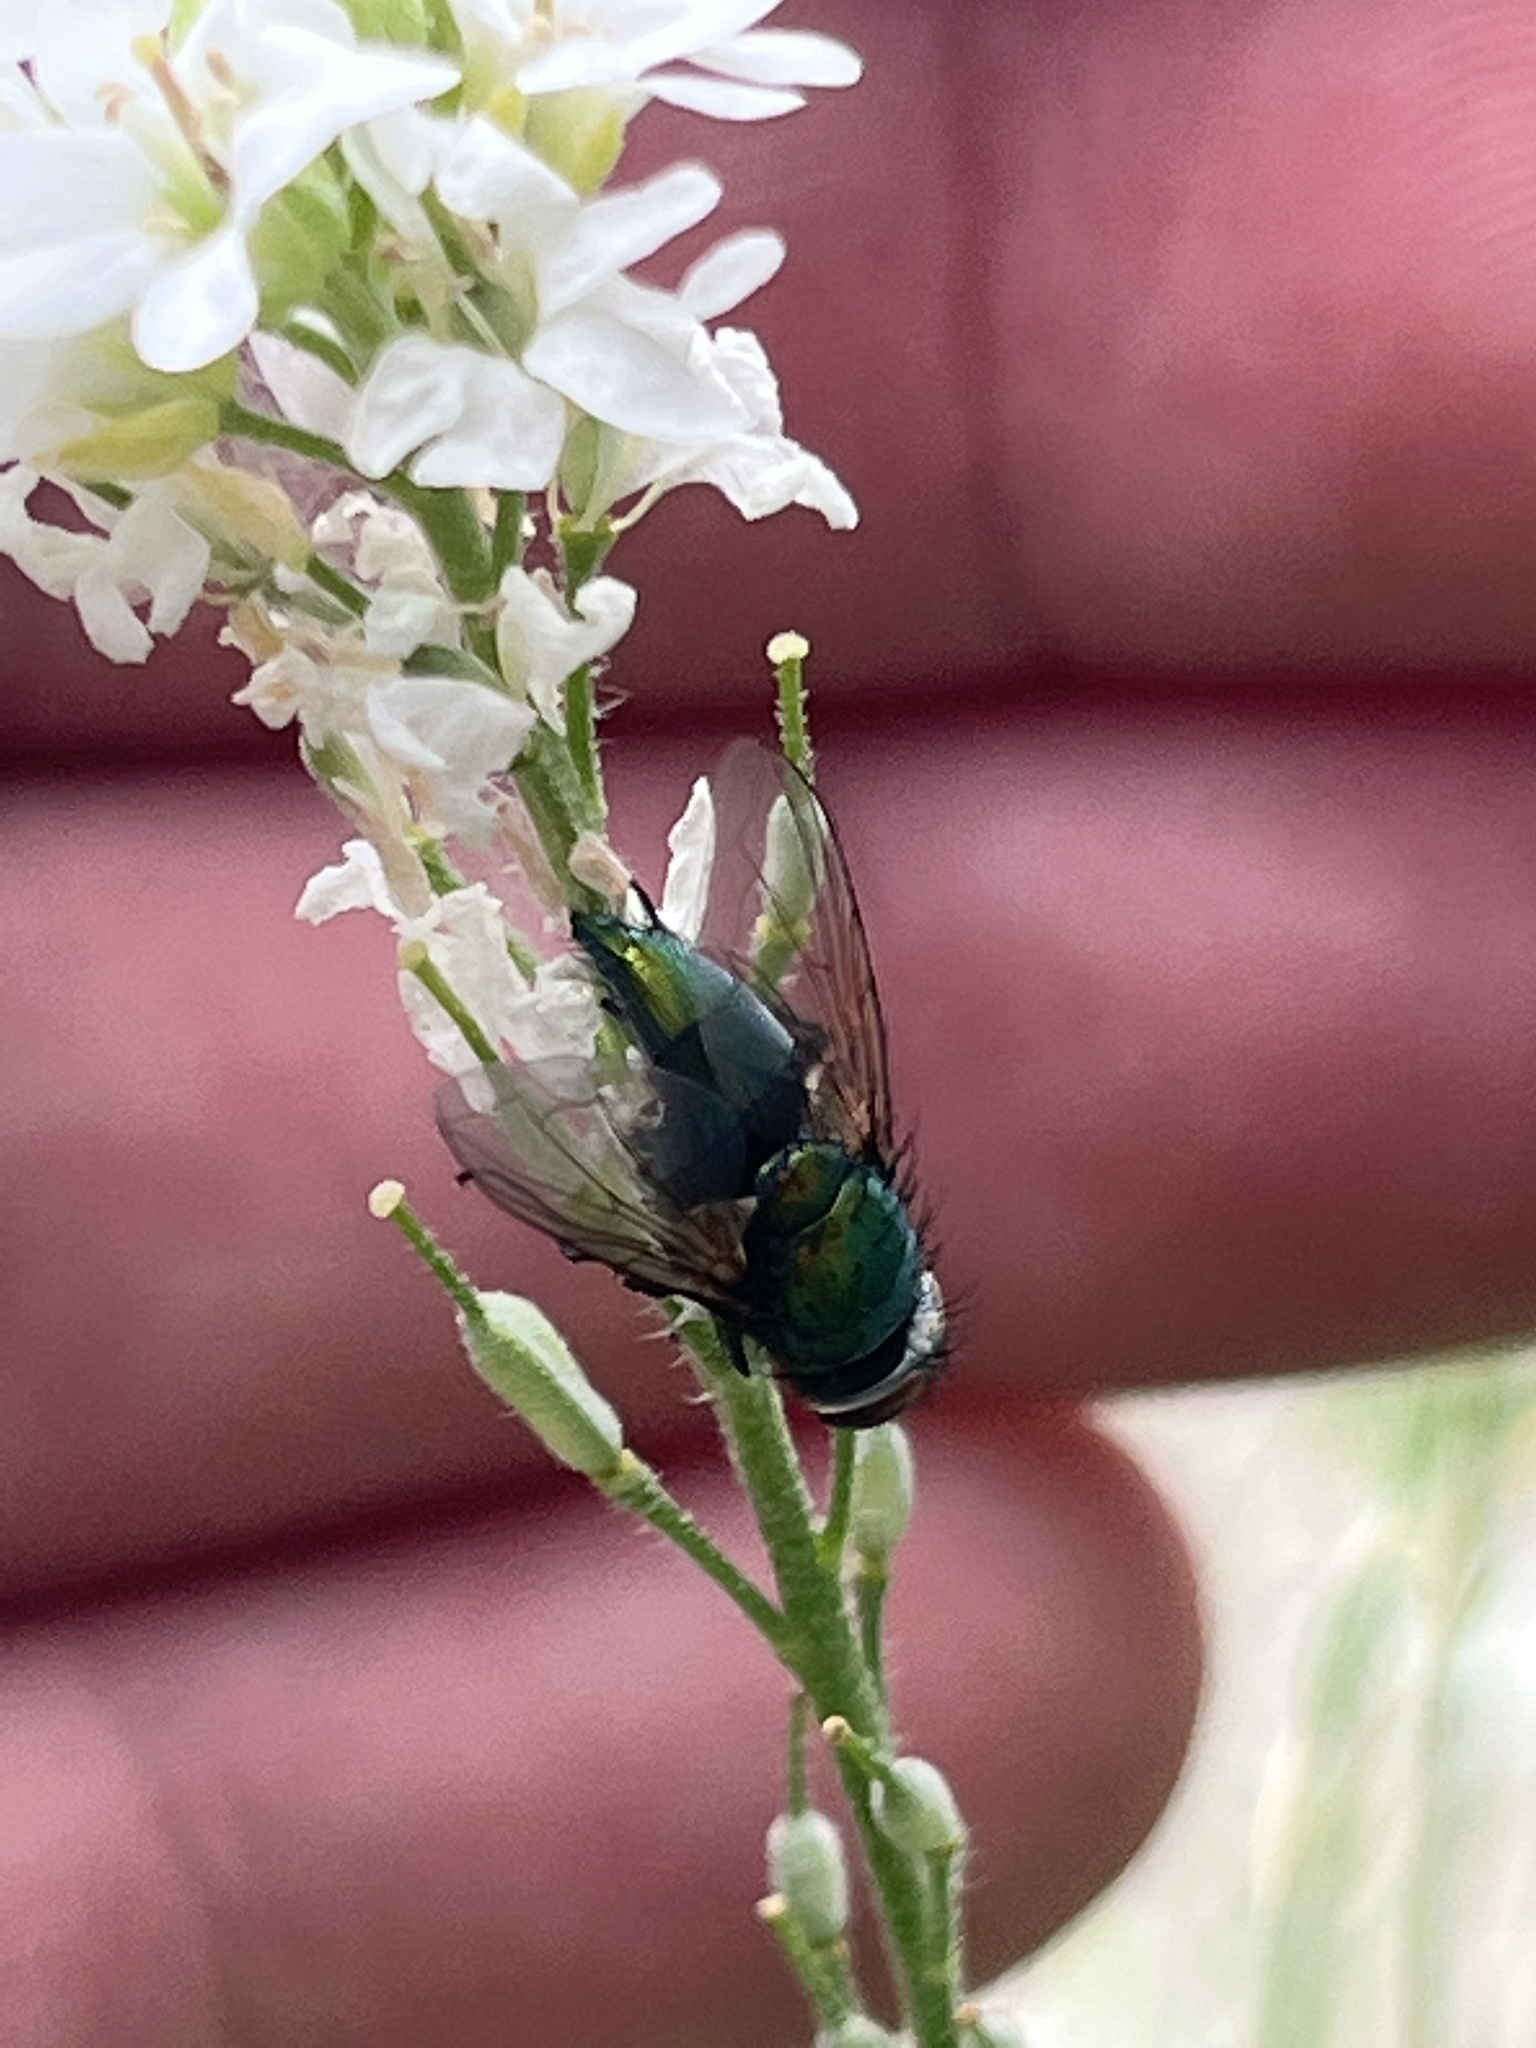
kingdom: Animalia
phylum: Arthropoda
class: Insecta
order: Diptera
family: Calliphoridae
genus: Lucilia
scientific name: Lucilia
